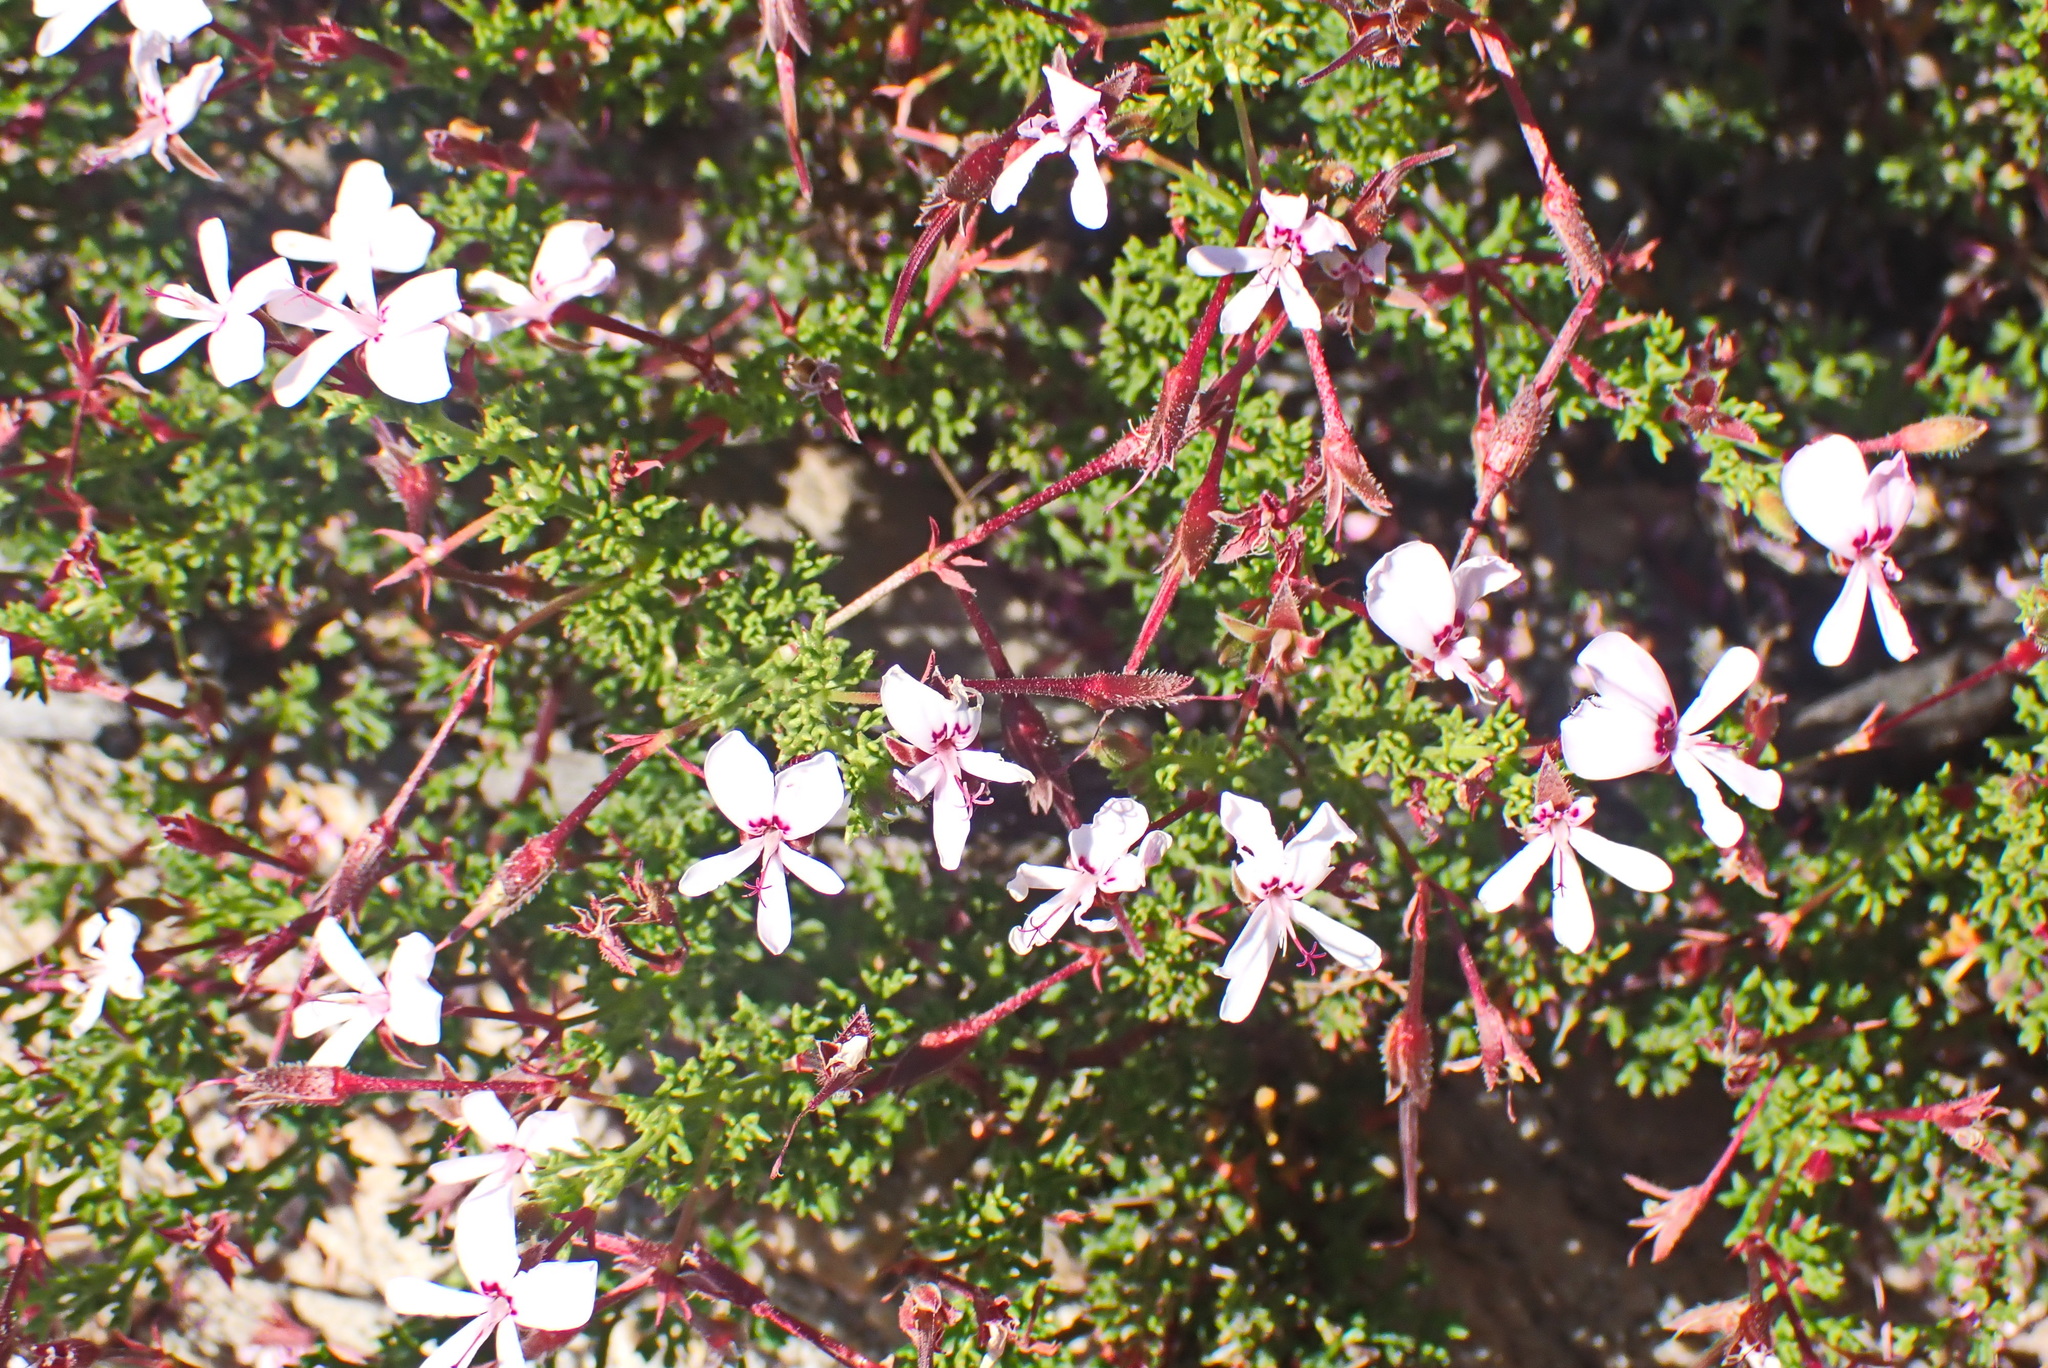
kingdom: Plantae
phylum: Tracheophyta
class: Magnoliopsida
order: Geraniales
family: Geraniaceae
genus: Pelargonium
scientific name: Pelargonium fruticosum
